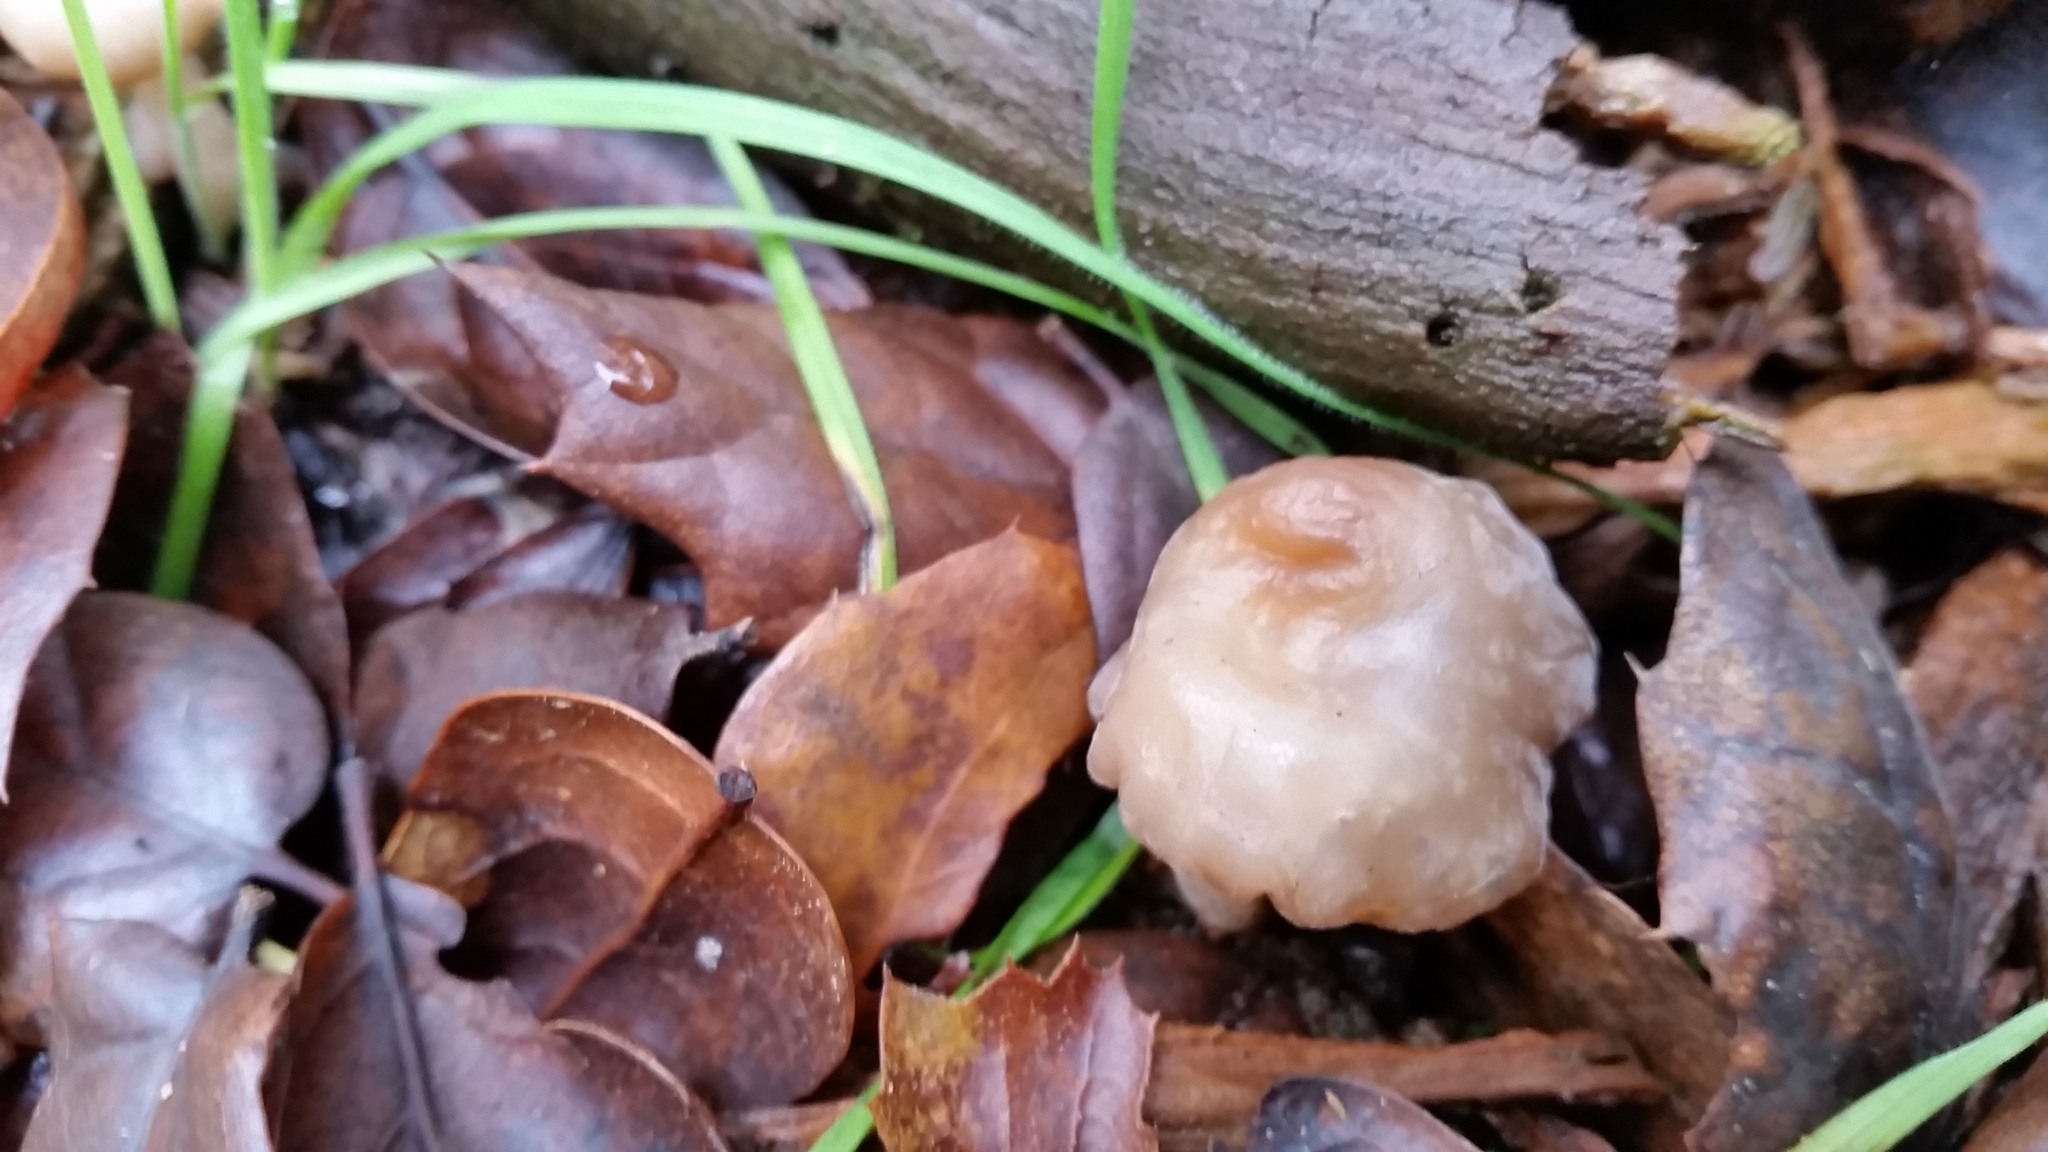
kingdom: Fungi
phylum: Ascomycota
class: Leotiomycetes
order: Rhytismatales
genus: Mycosymbioces
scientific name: Mycosymbioces mycenophila
